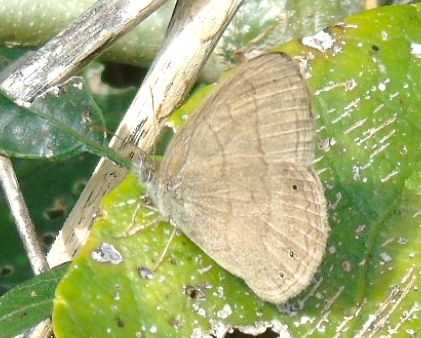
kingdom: Animalia
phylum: Arthropoda
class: Insecta
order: Lepidoptera
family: Nymphalidae
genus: Hermeuptychia
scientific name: Hermeuptychia
